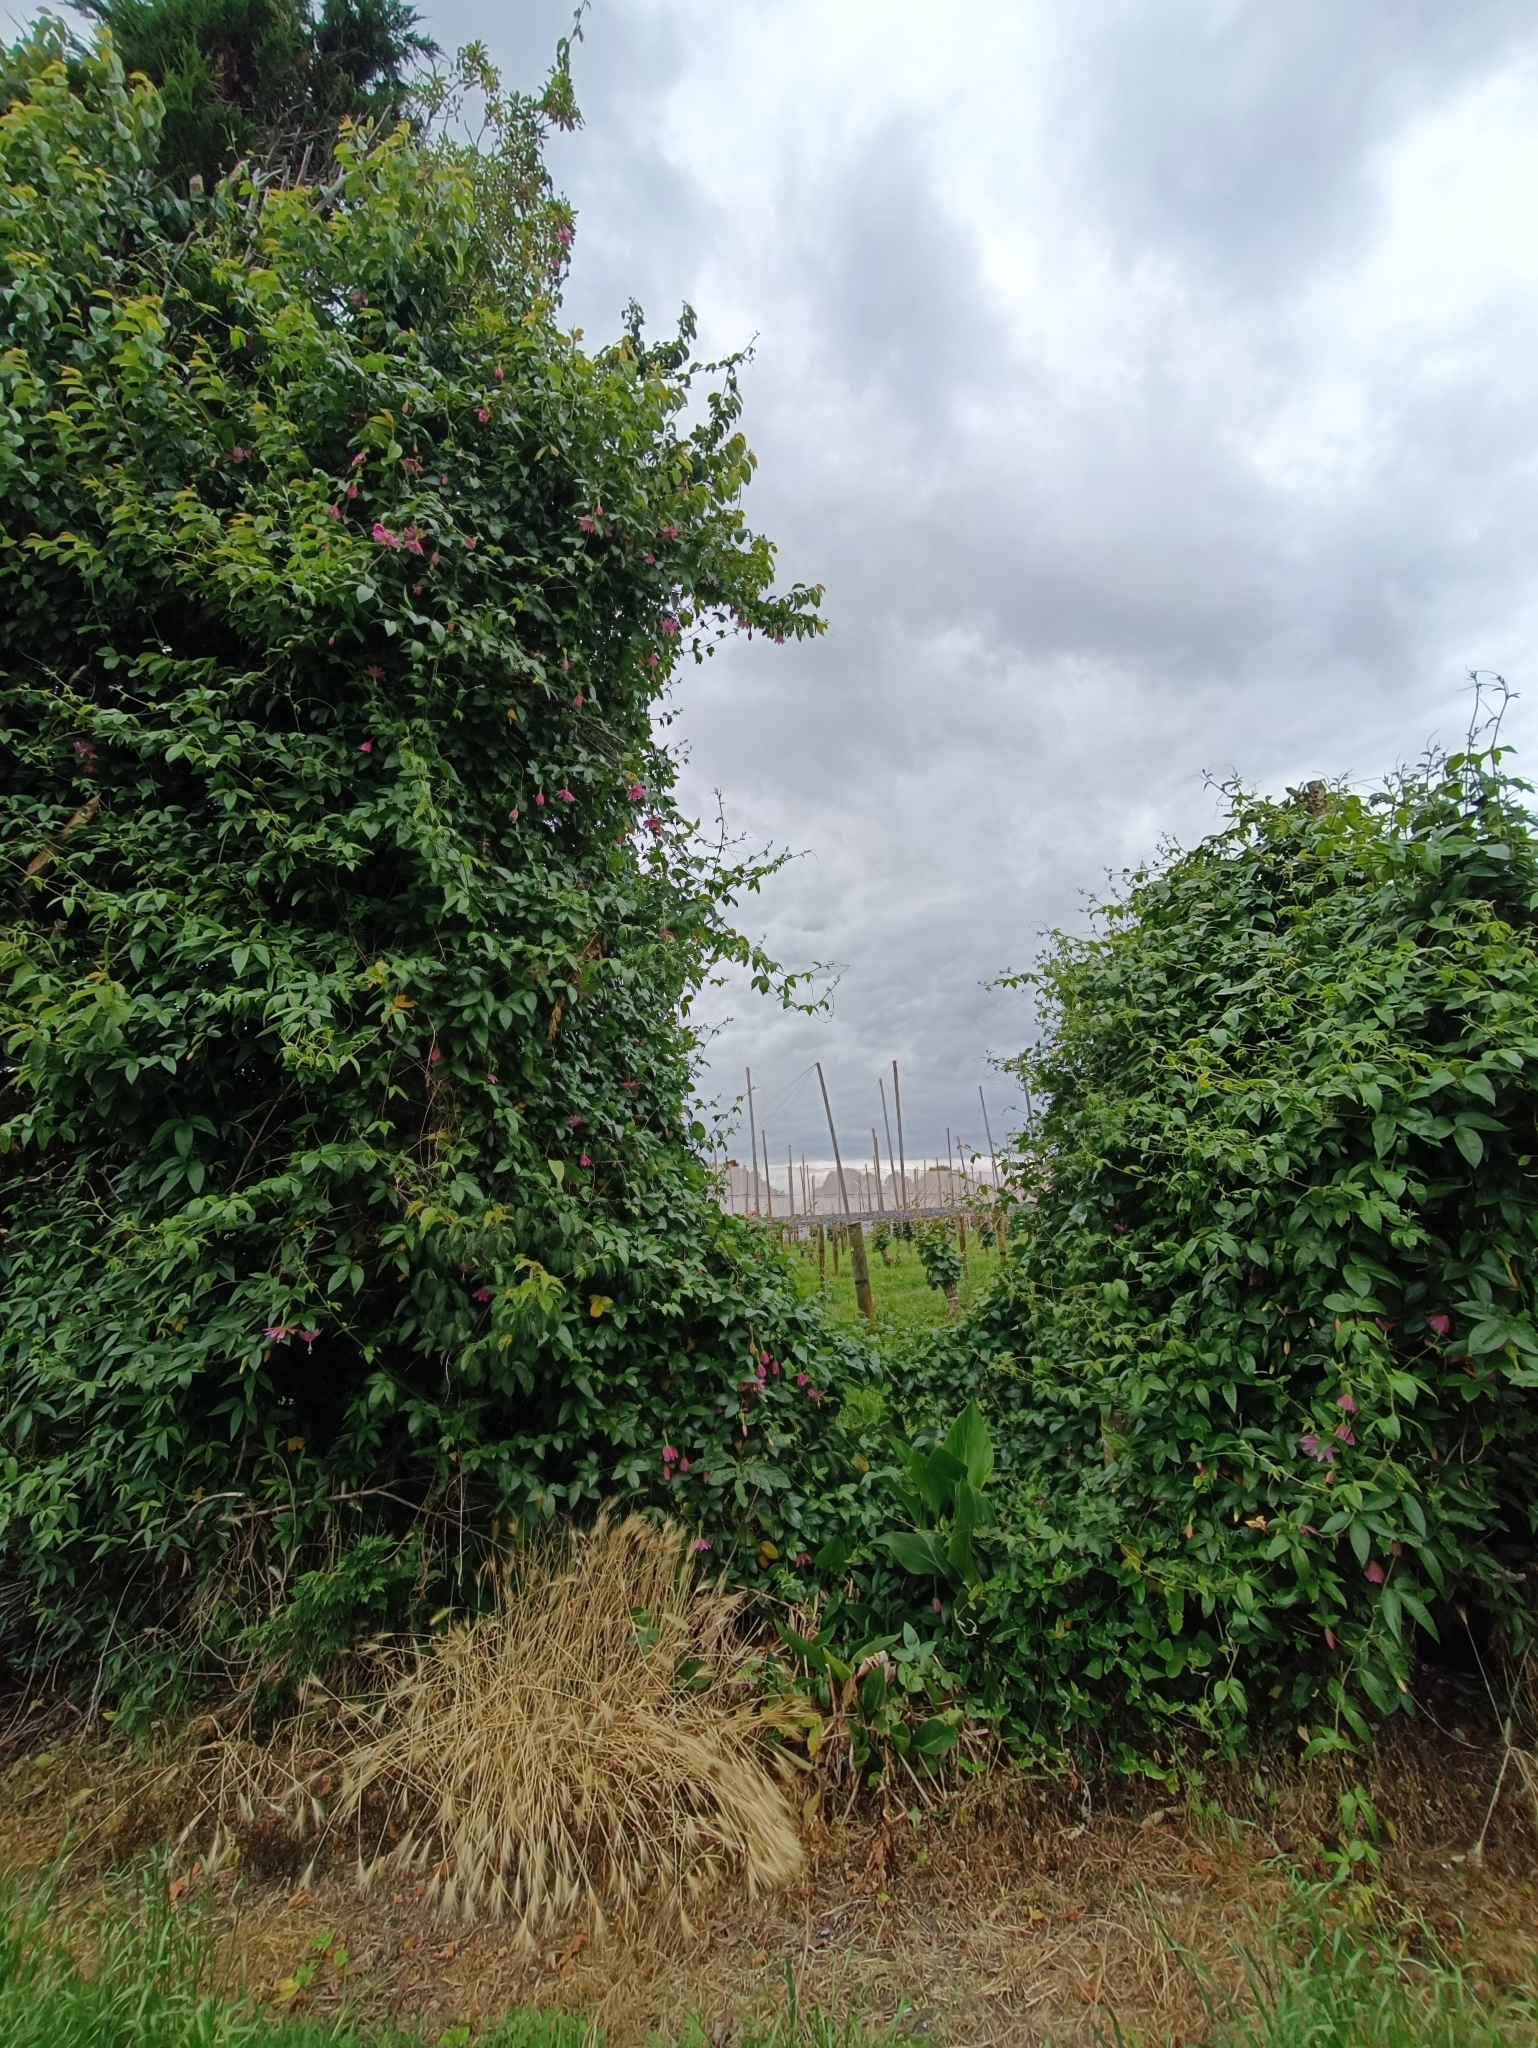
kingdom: Plantae
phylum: Tracheophyta
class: Magnoliopsida
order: Malpighiales
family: Passifloraceae
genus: Passiflora
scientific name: Passiflora tarminiana
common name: Banana poka
